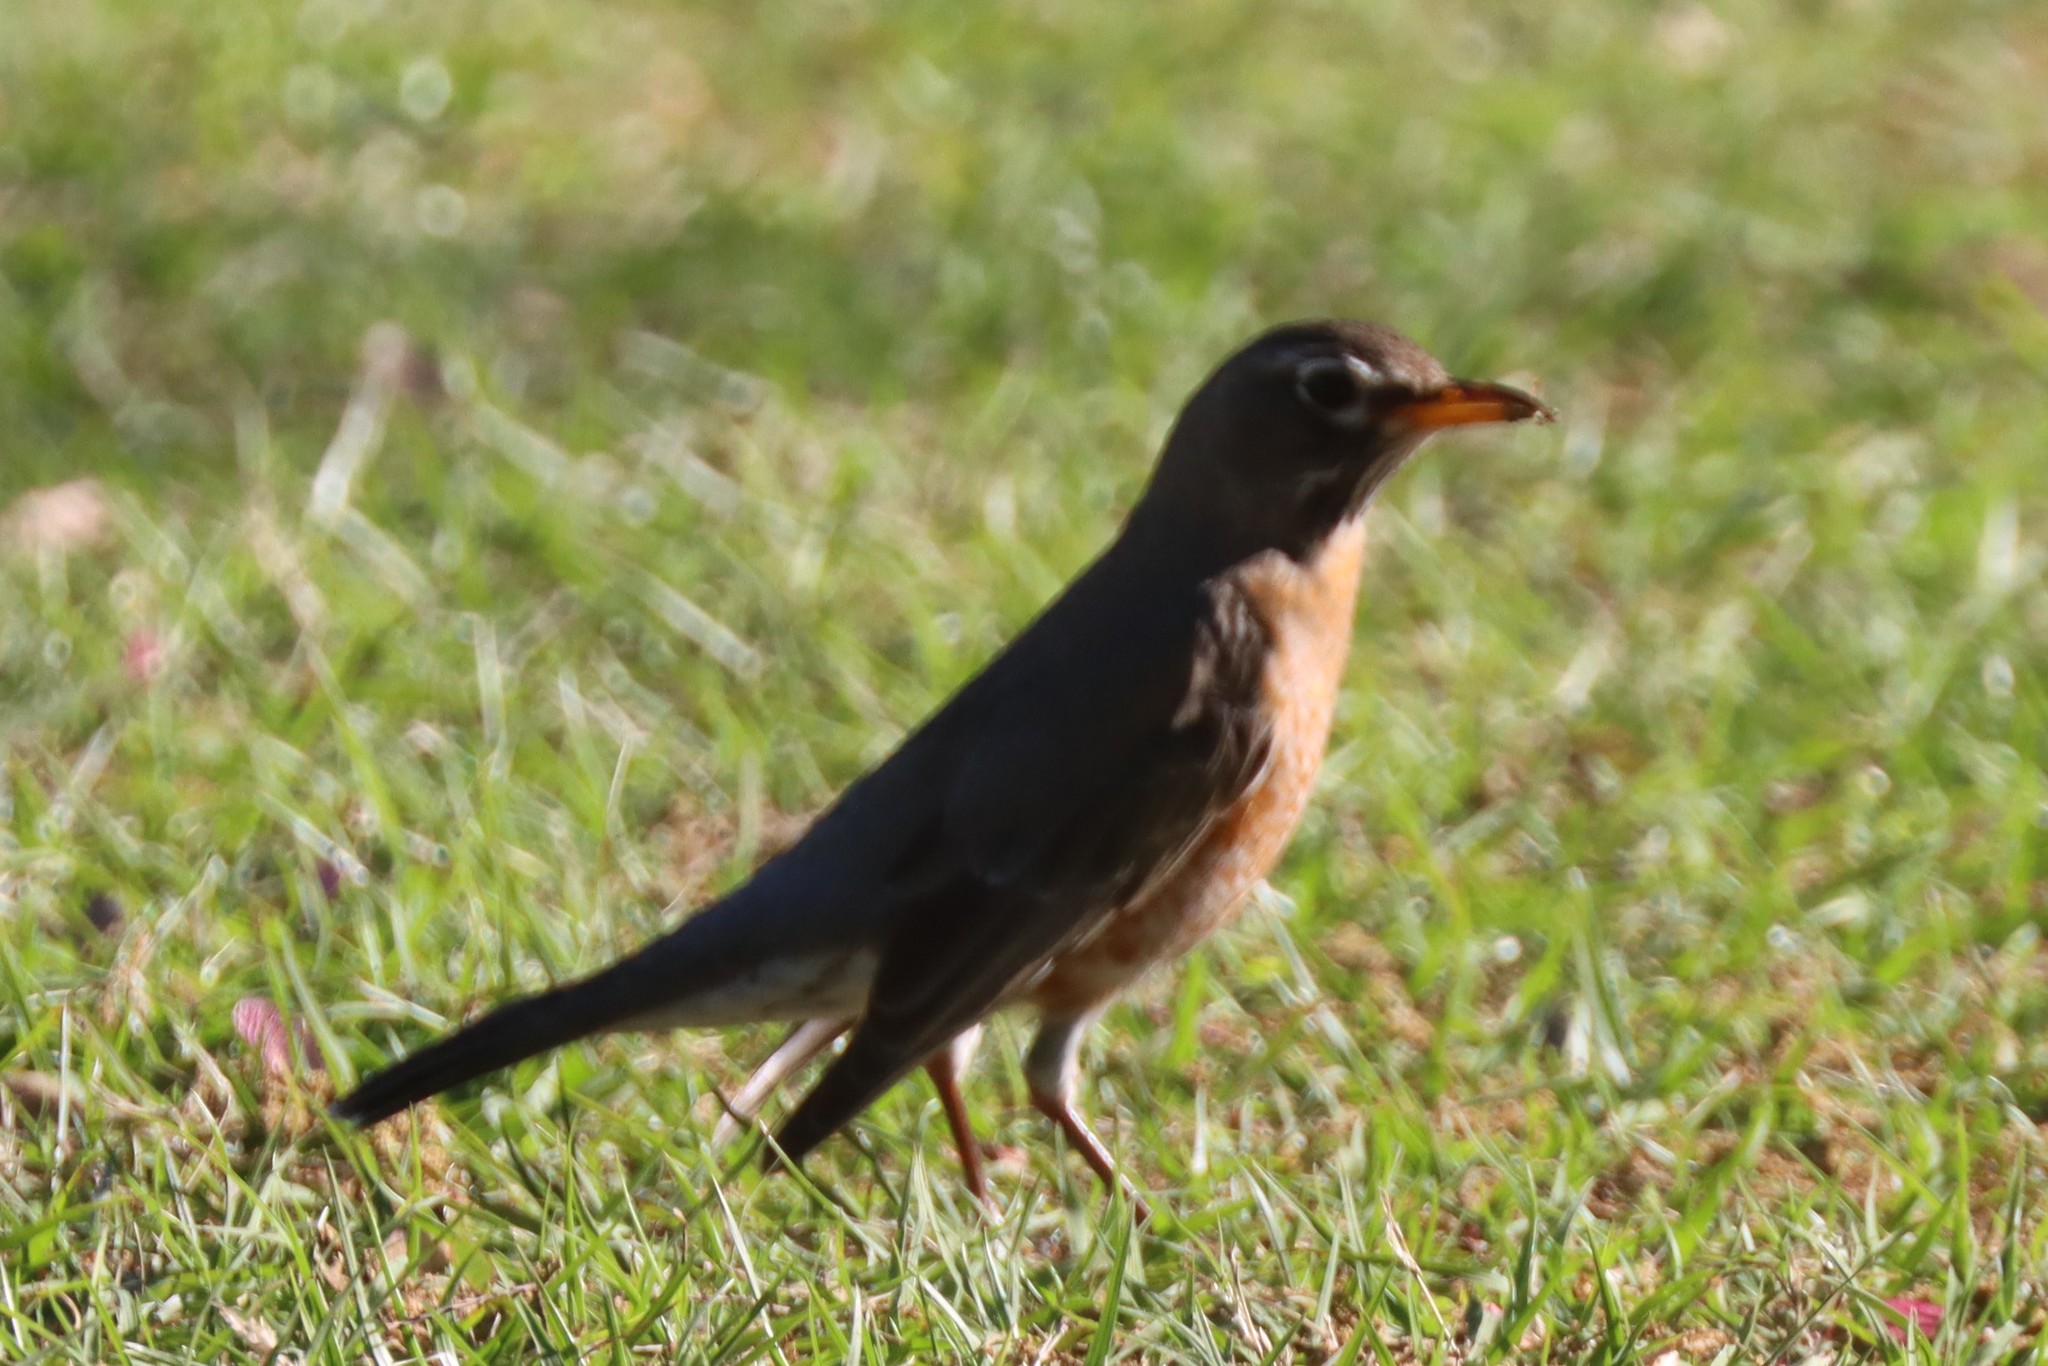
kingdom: Animalia
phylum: Chordata
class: Aves
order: Passeriformes
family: Turdidae
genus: Turdus
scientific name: Turdus migratorius
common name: American robin
